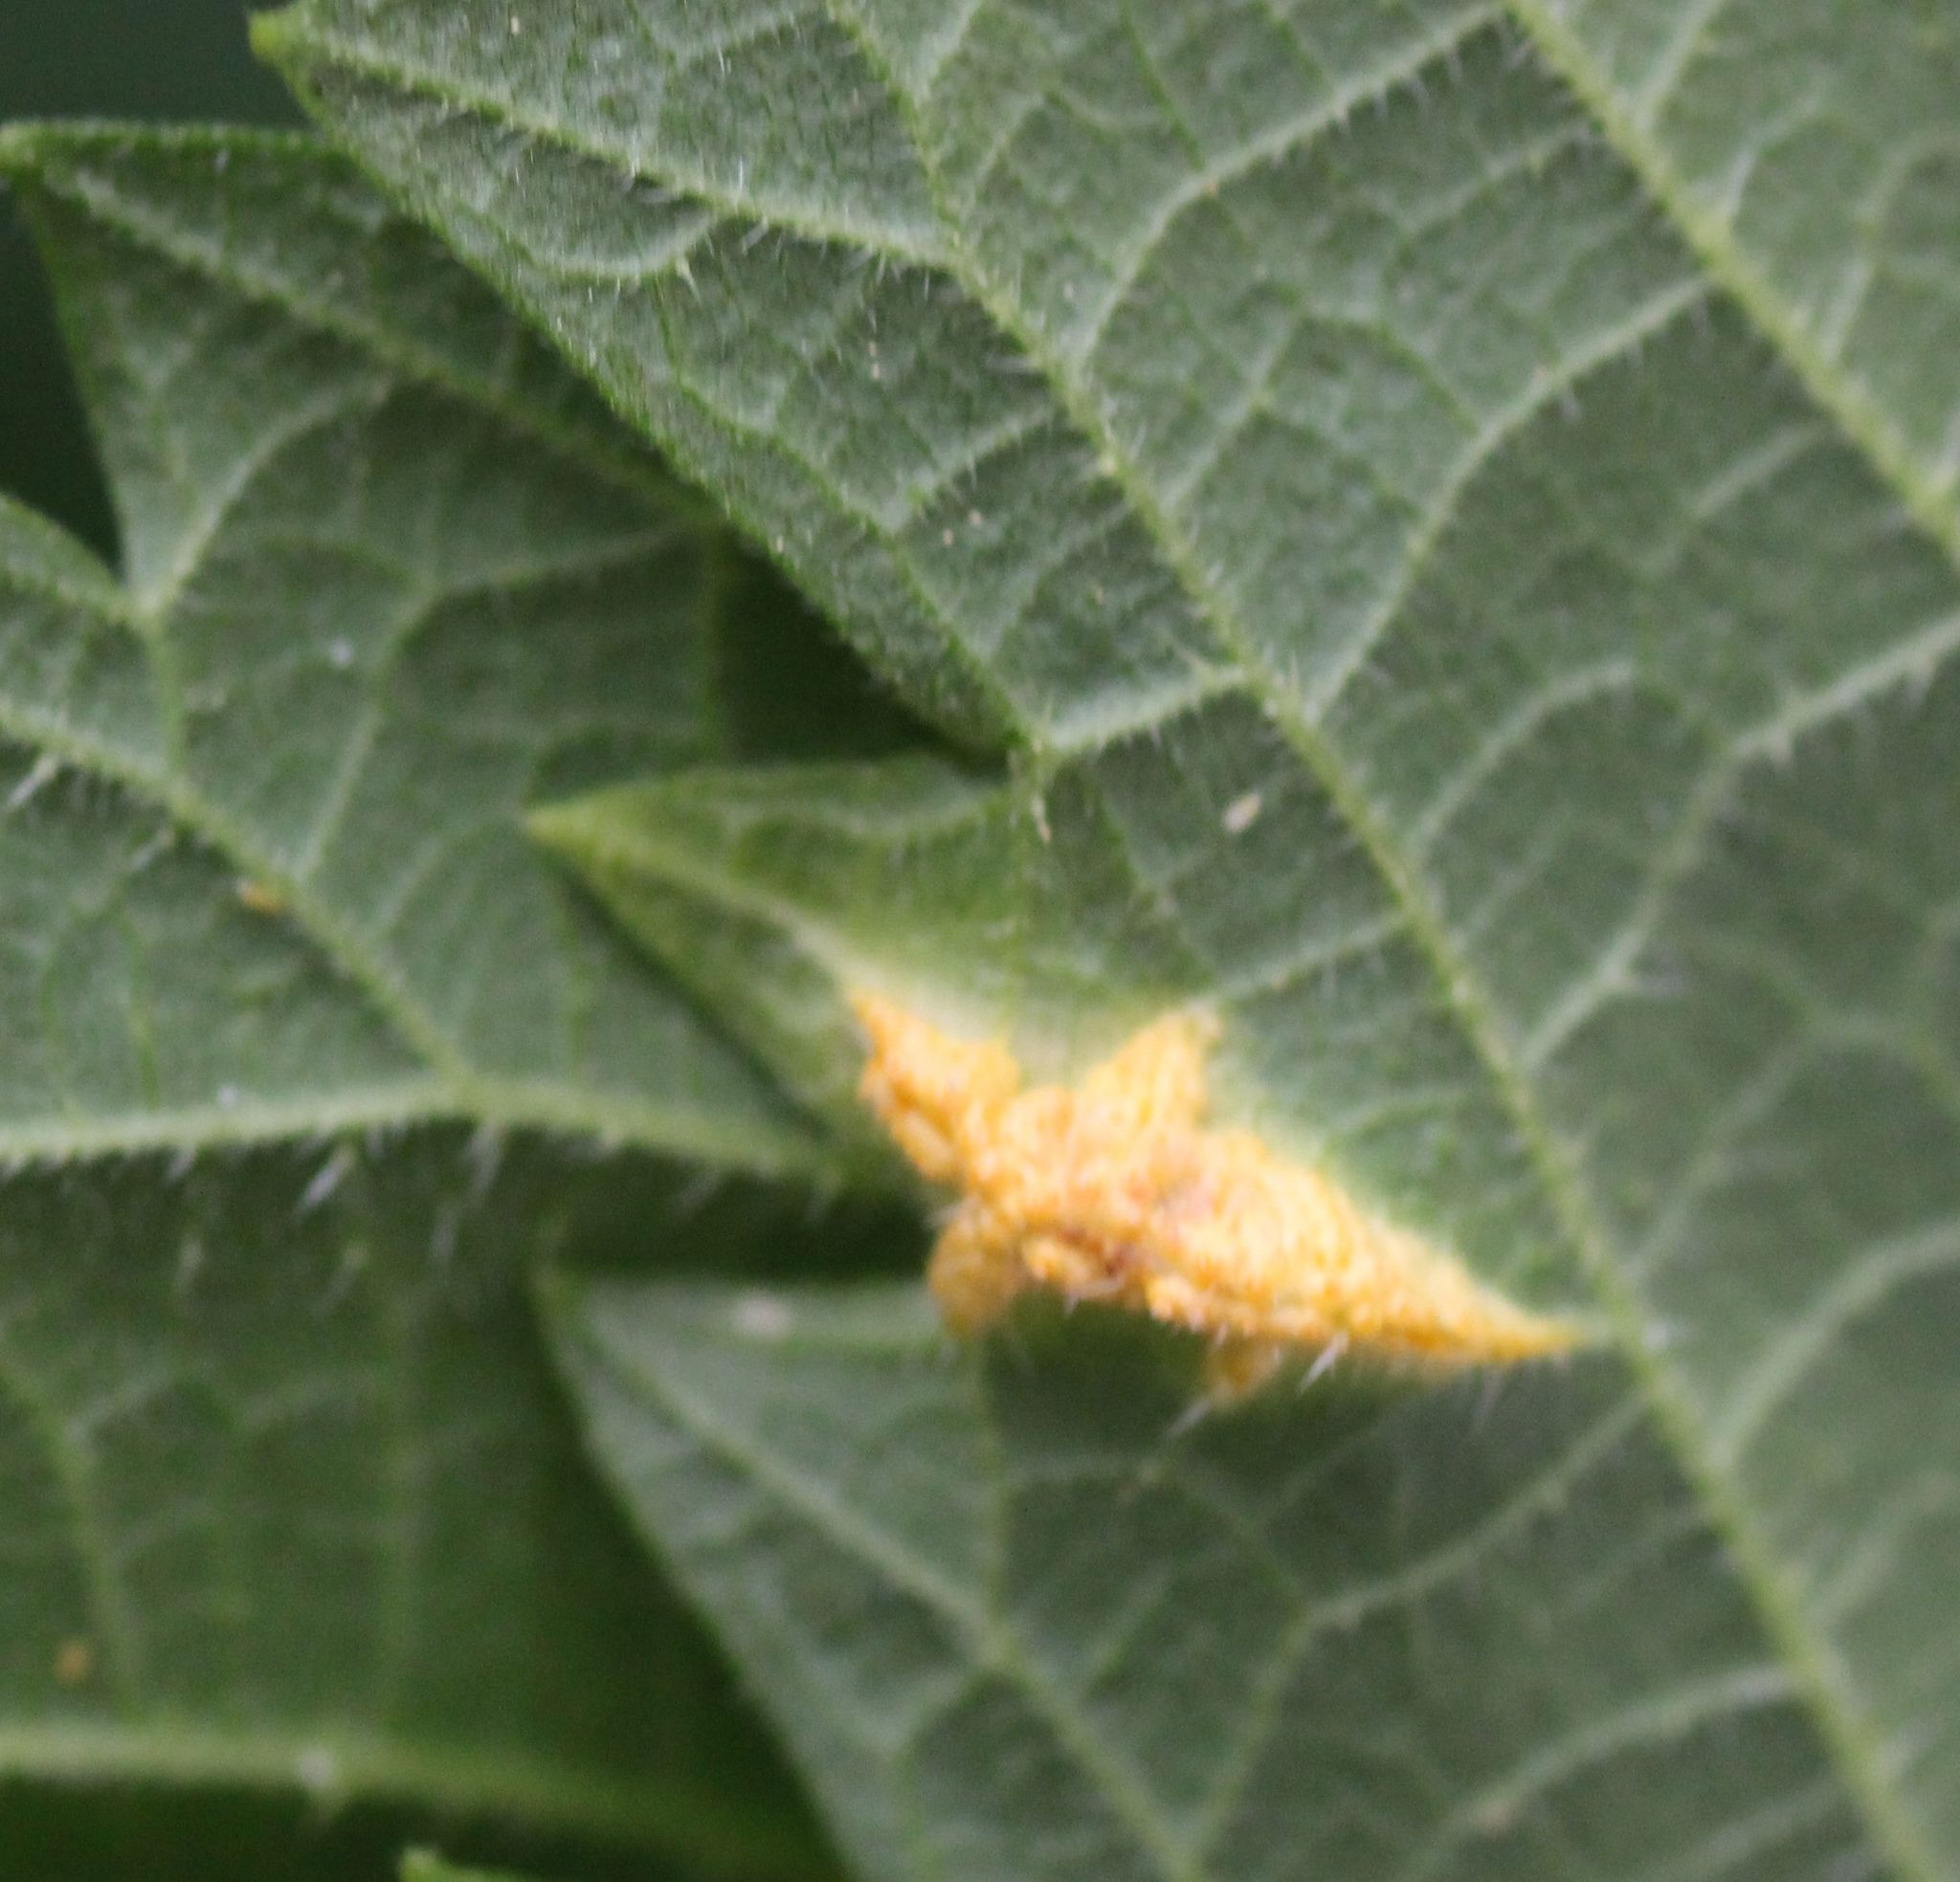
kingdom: Fungi
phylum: Basidiomycota
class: Pucciniomycetes
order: Pucciniales
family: Pucciniaceae
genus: Puccinia
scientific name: Puccinia urticata
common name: Nettle clustercup rust fungus
